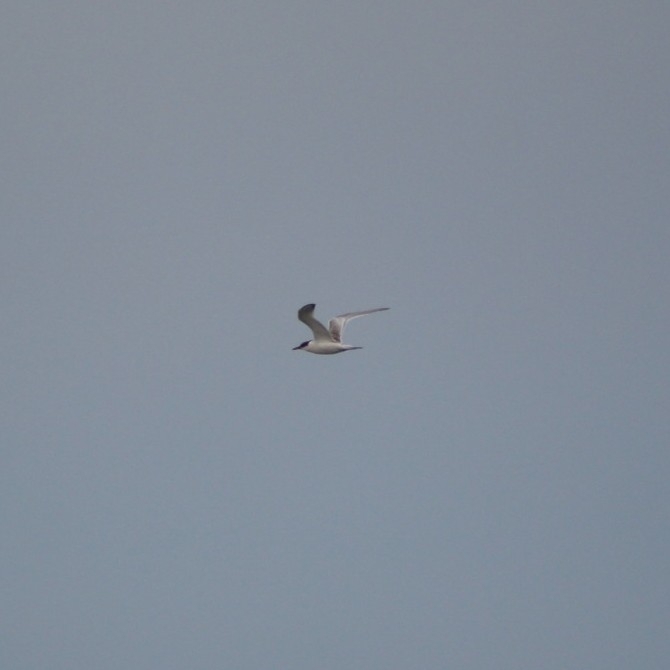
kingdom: Animalia
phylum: Chordata
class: Aves
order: Charadriiformes
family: Laridae
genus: Sterna
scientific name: Sterna hirundo
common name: Common tern
